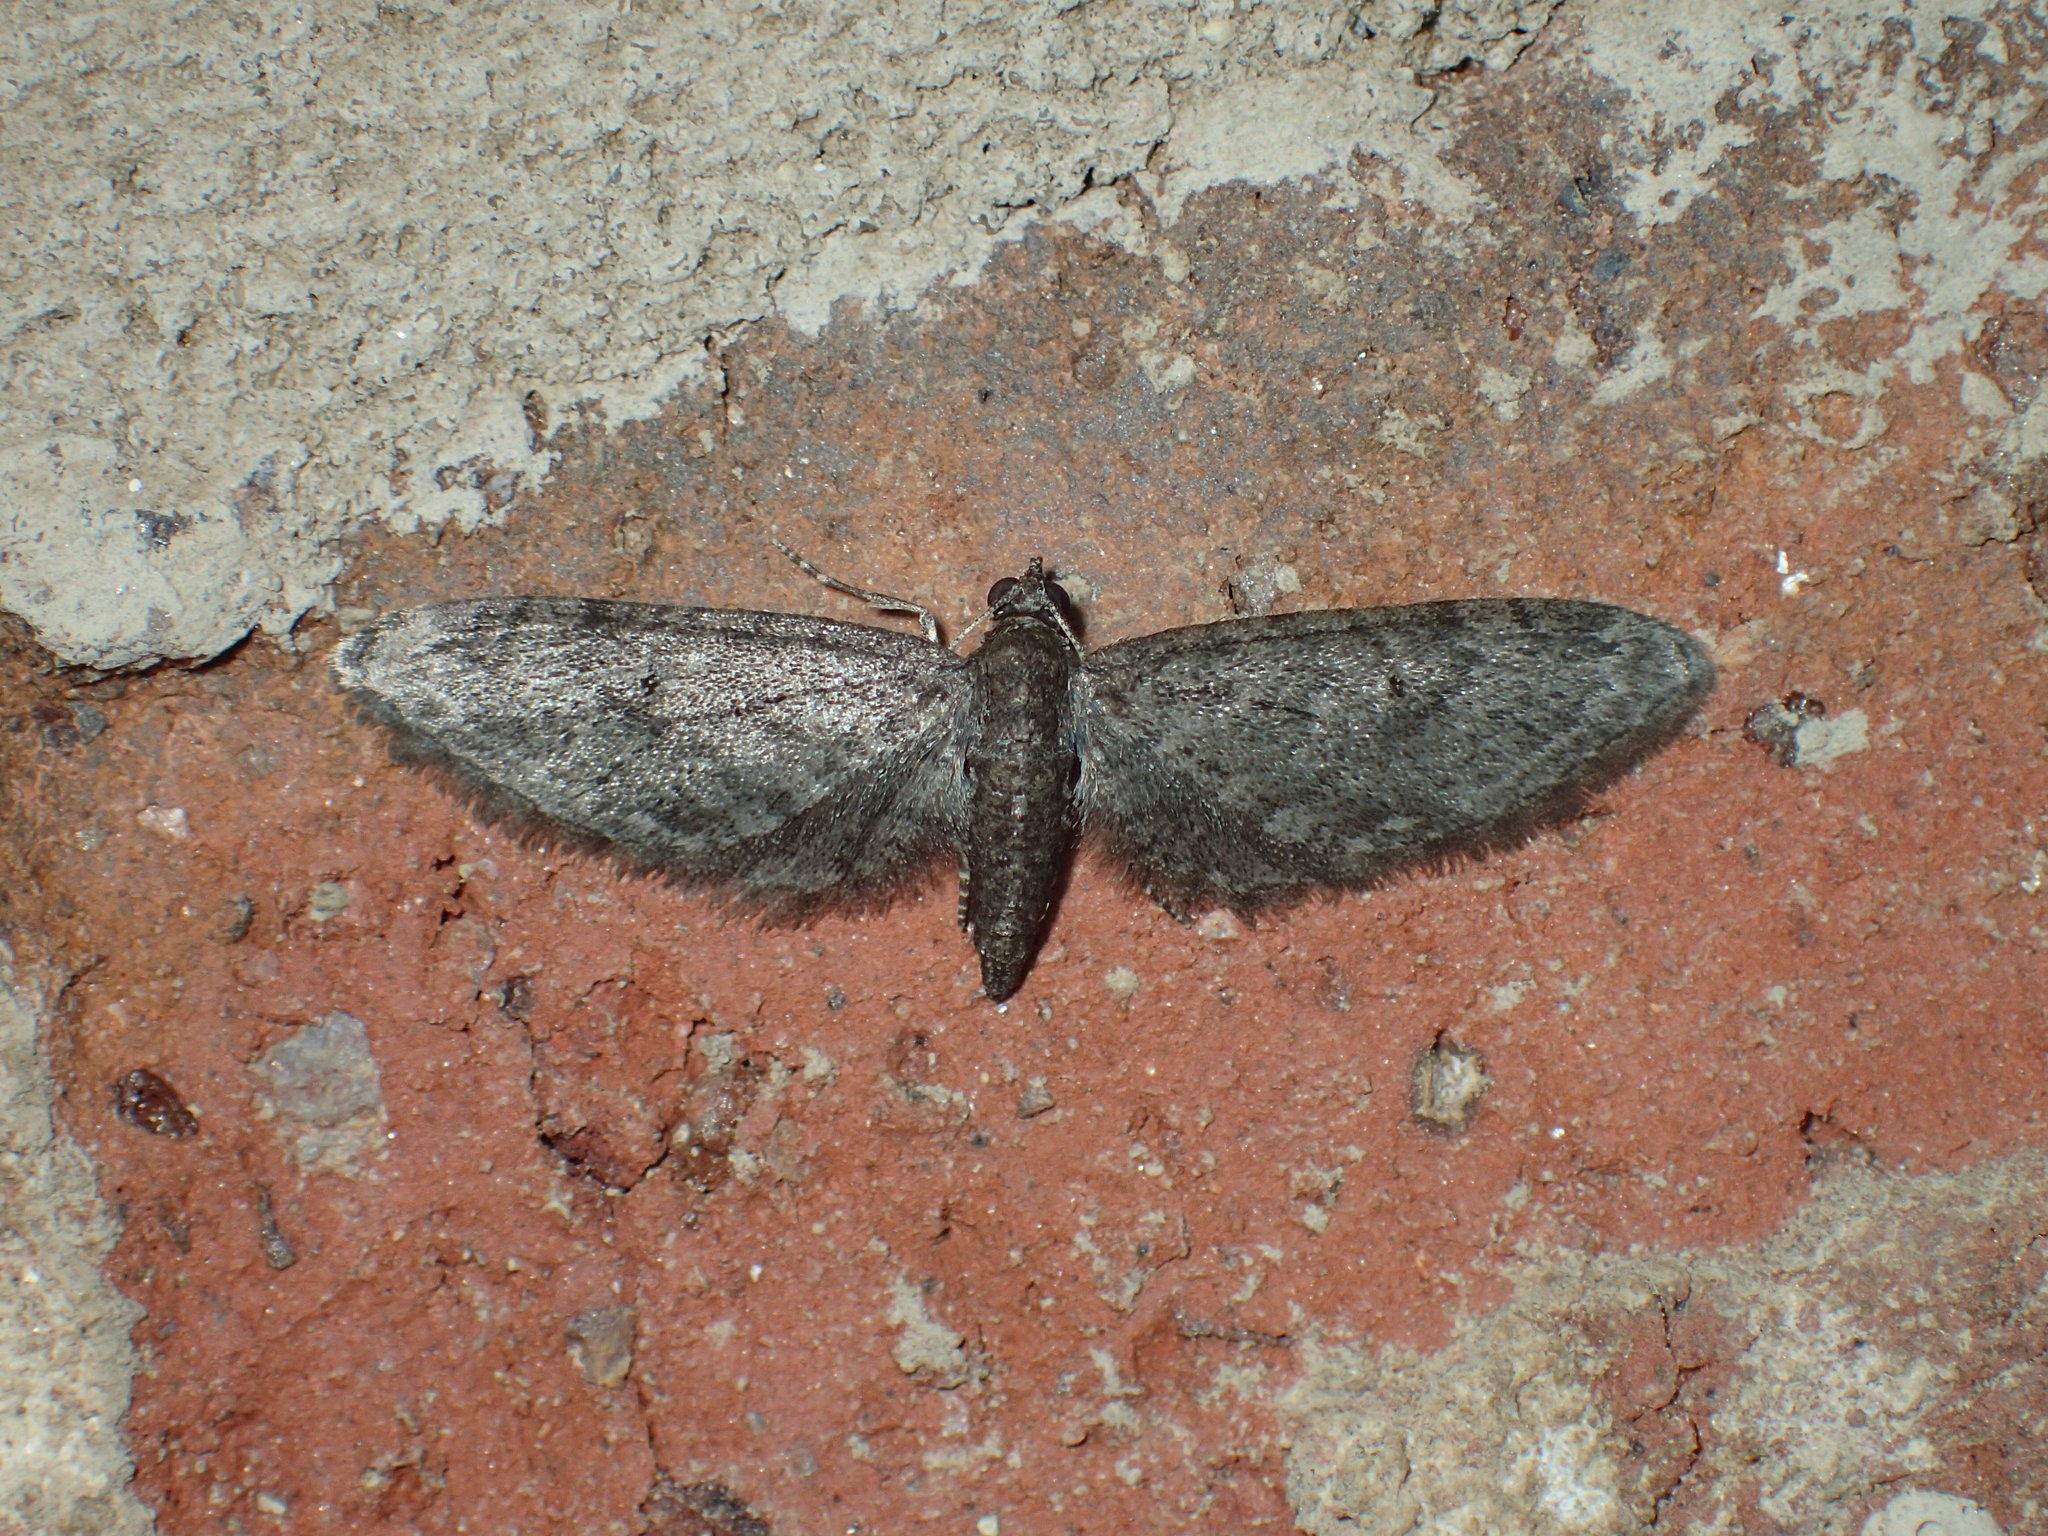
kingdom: Animalia
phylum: Arthropoda
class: Insecta
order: Lepidoptera
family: Geometridae
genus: Eupithecia
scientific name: Eupithecia miserulata
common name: Common eupithecia
